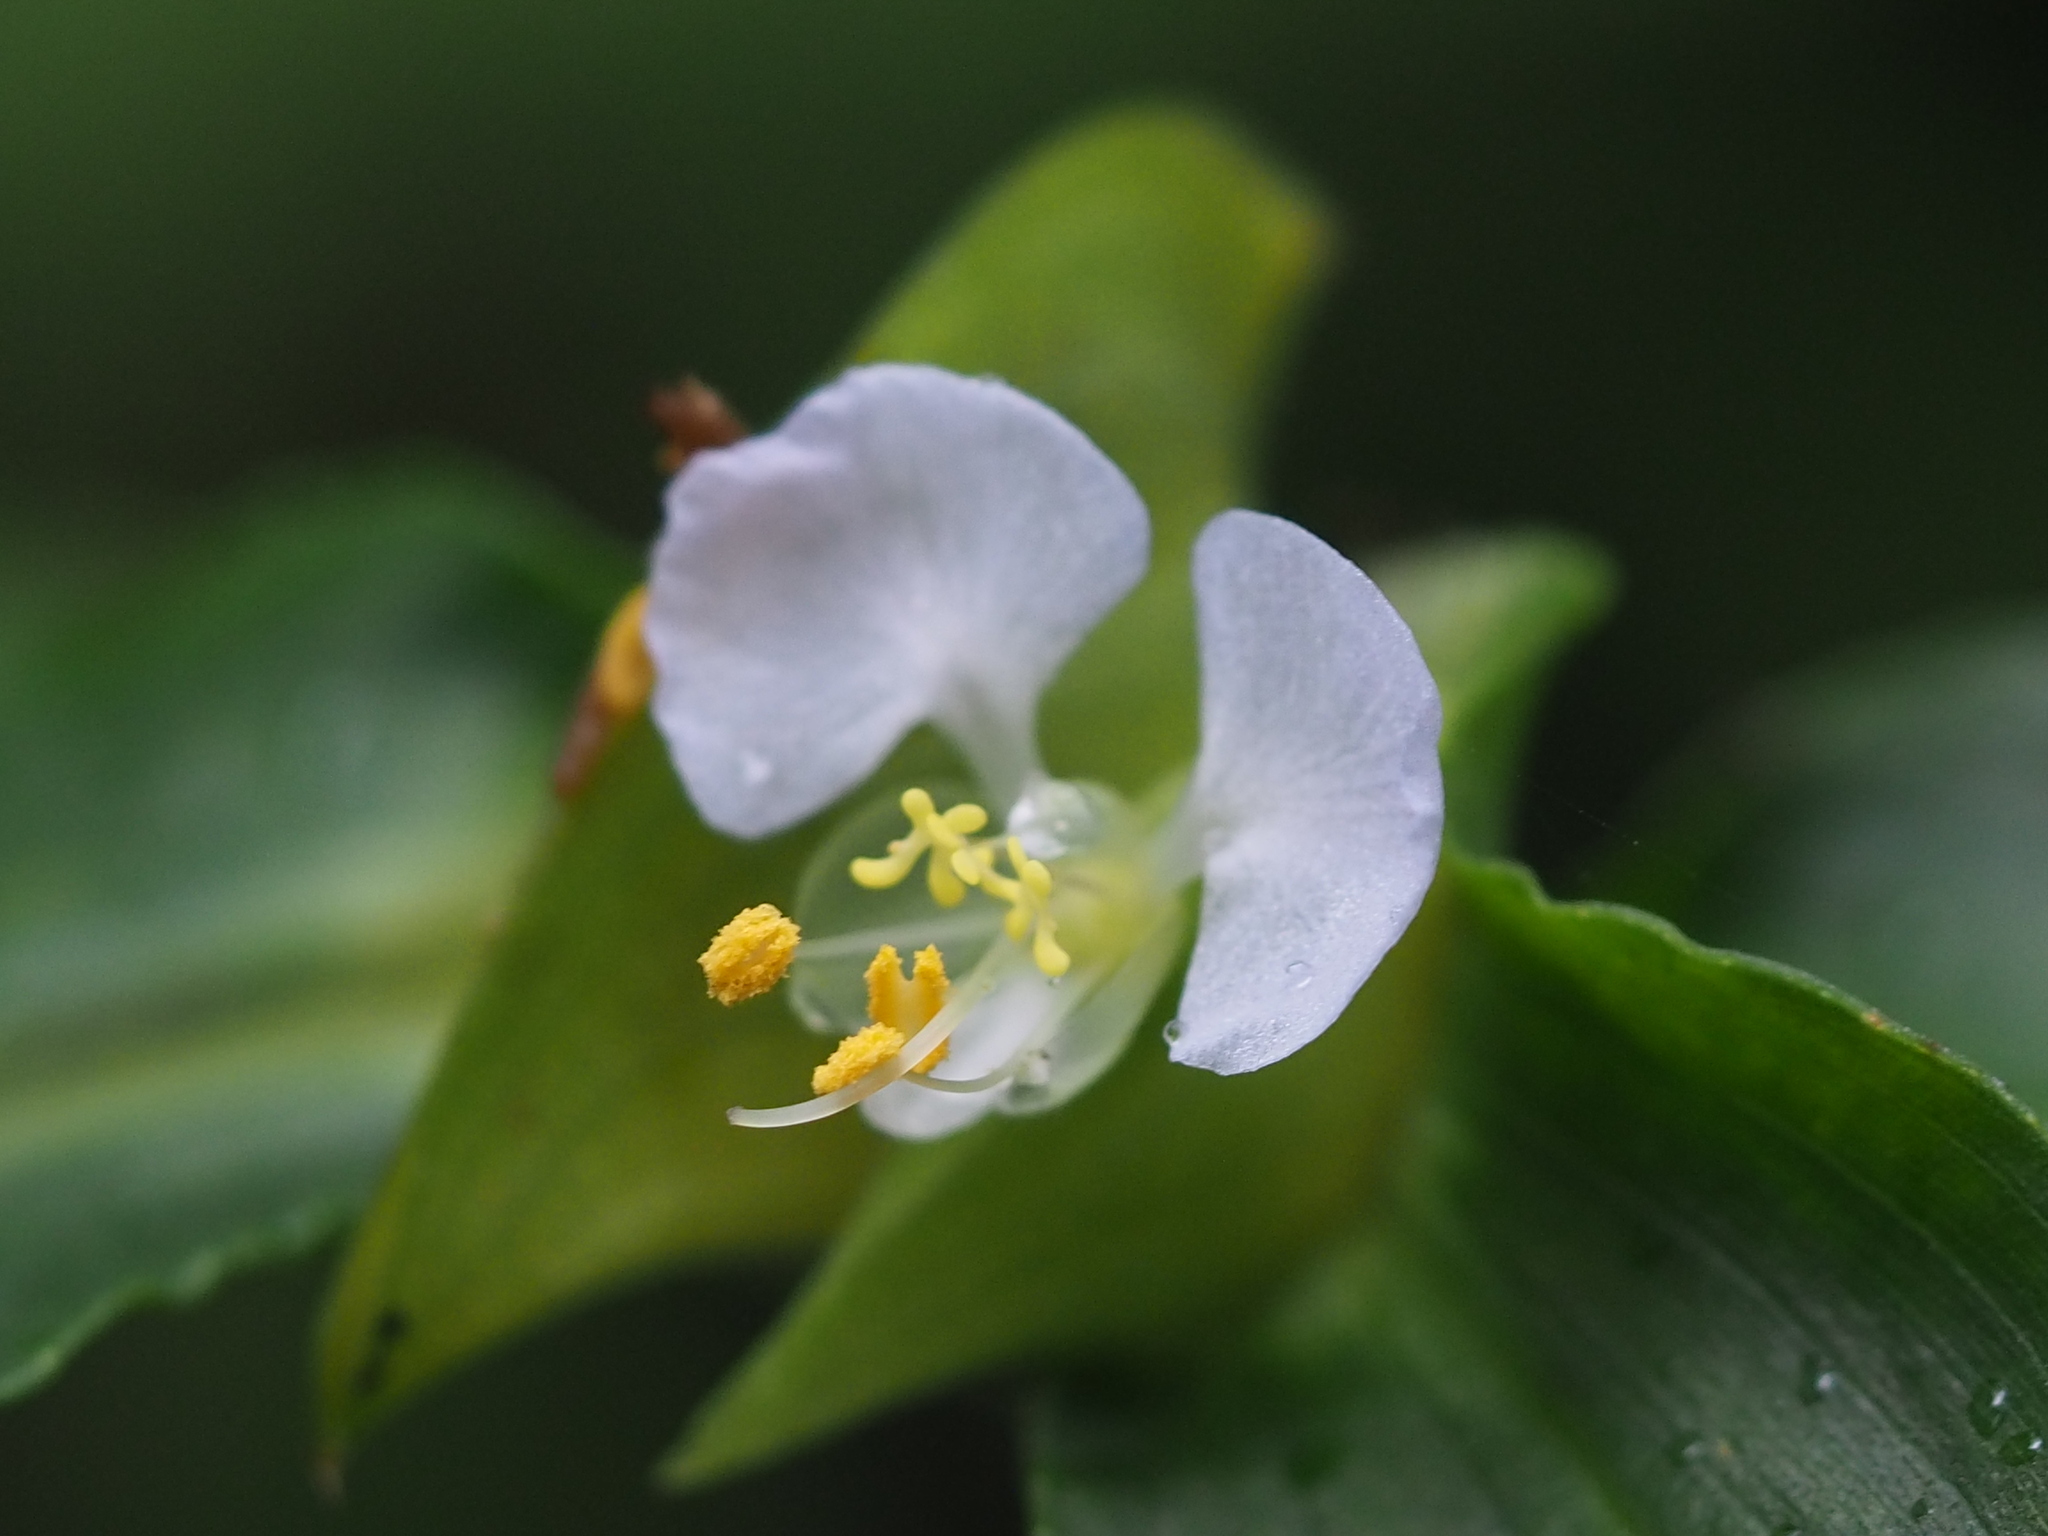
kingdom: Plantae
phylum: Tracheophyta
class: Liliopsida
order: Commelinales
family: Commelinaceae
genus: Commelina
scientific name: Commelina paludosa
